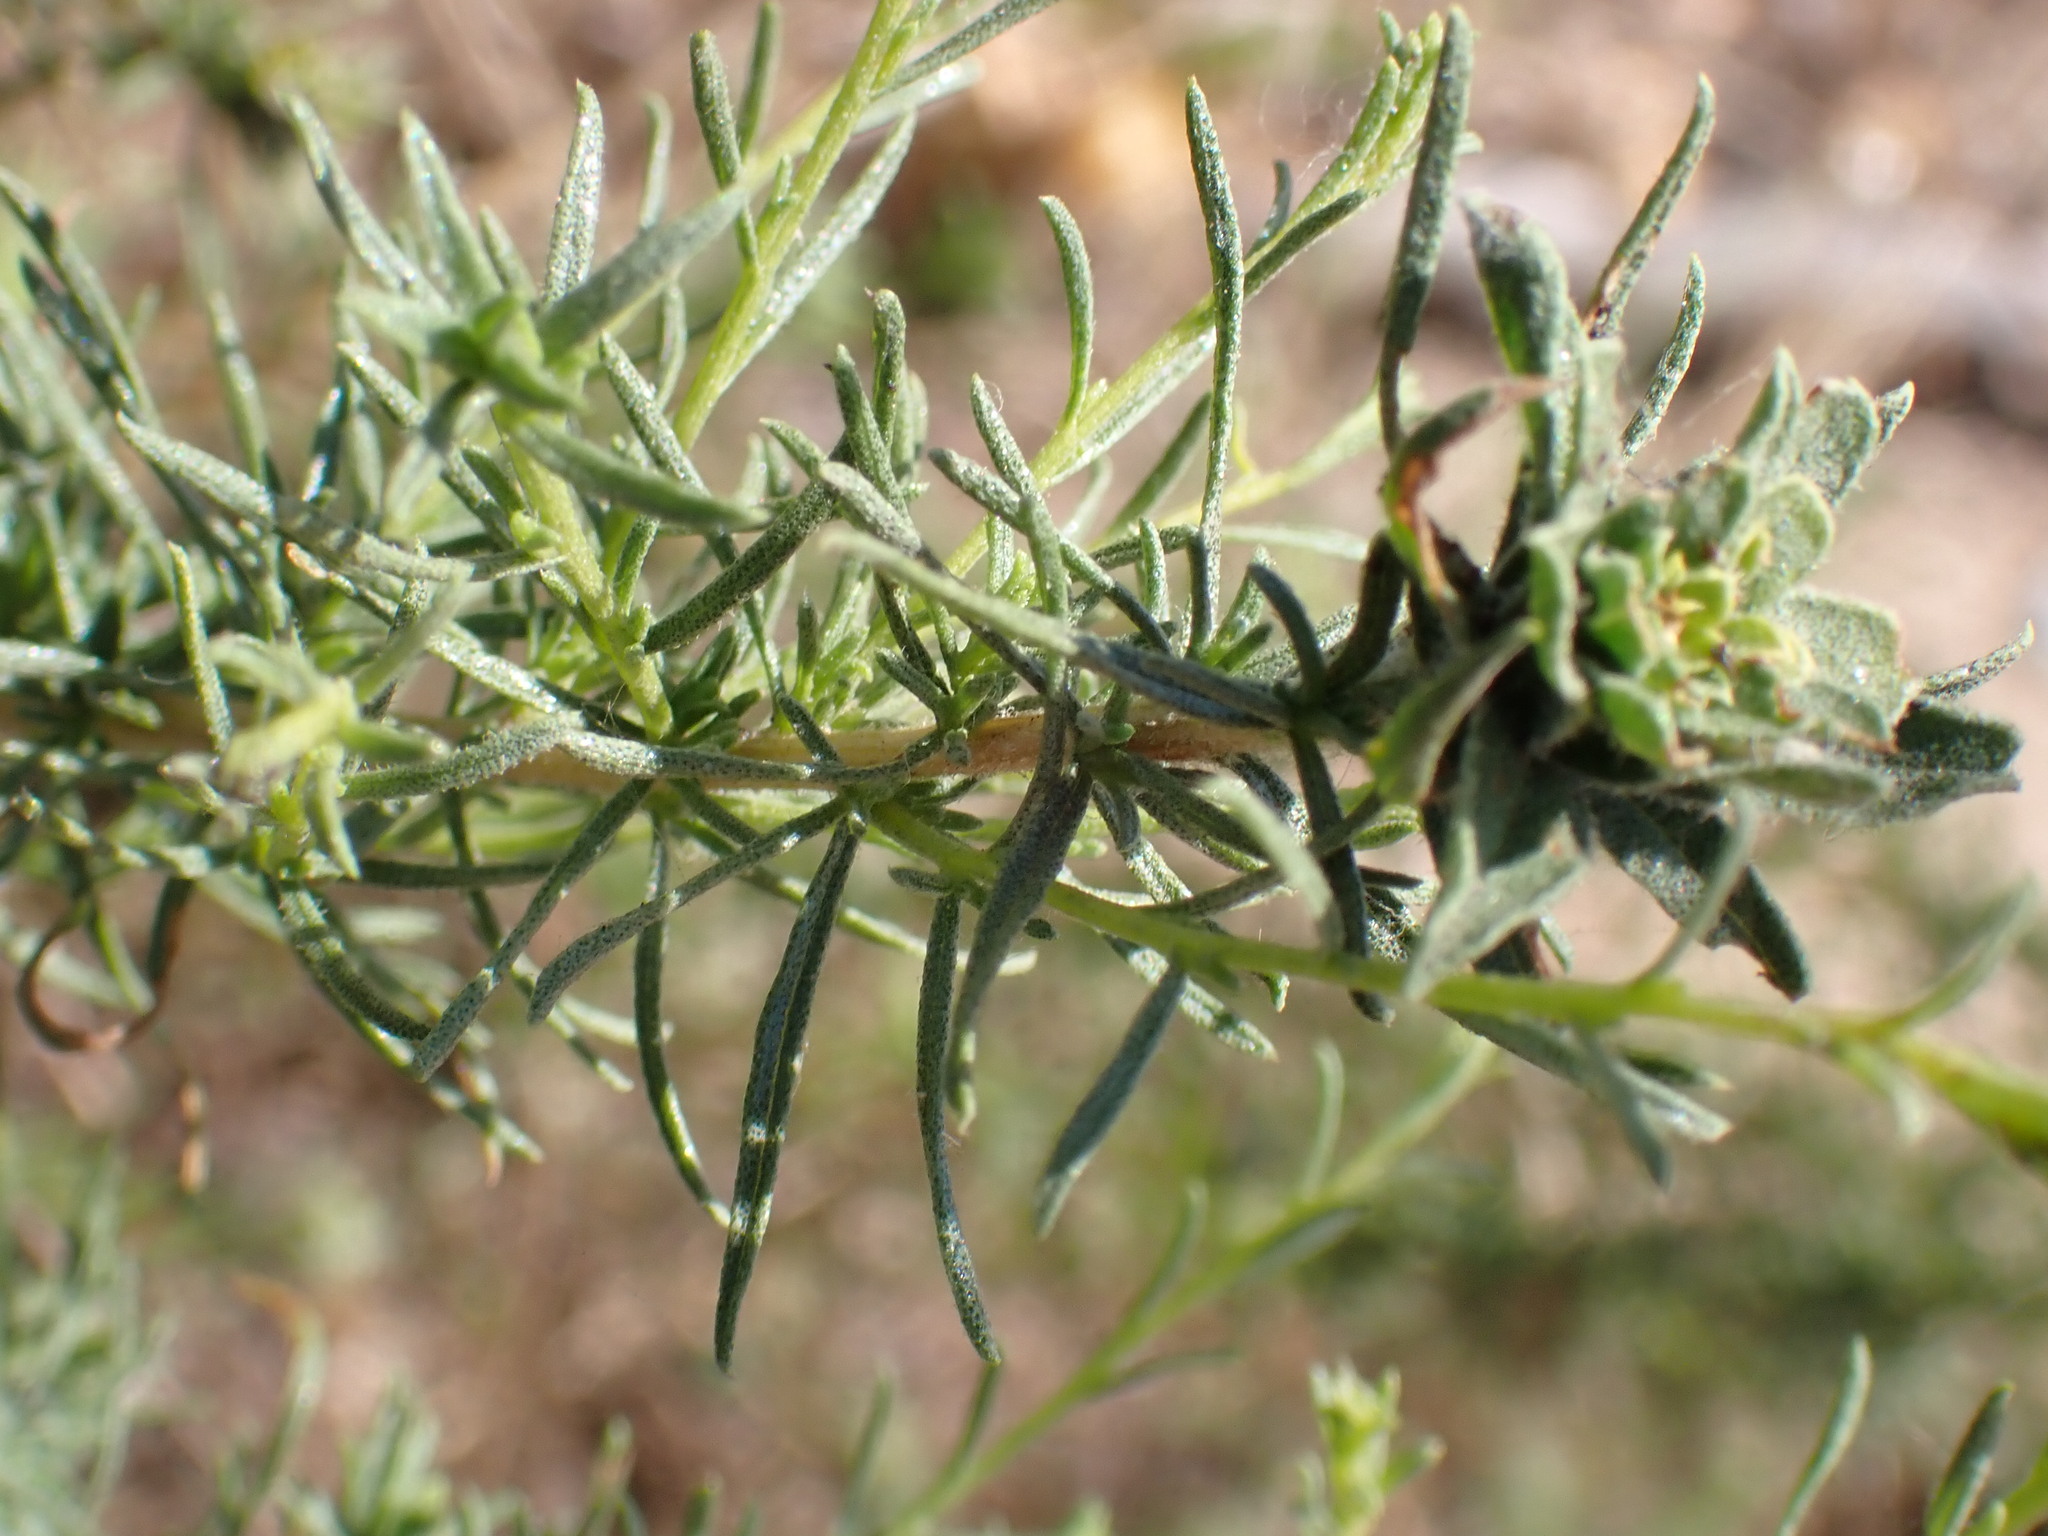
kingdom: Plantae
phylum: Tracheophyta
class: Magnoliopsida
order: Asterales
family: Asteraceae
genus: Ericameria
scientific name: Ericameria palmeri
